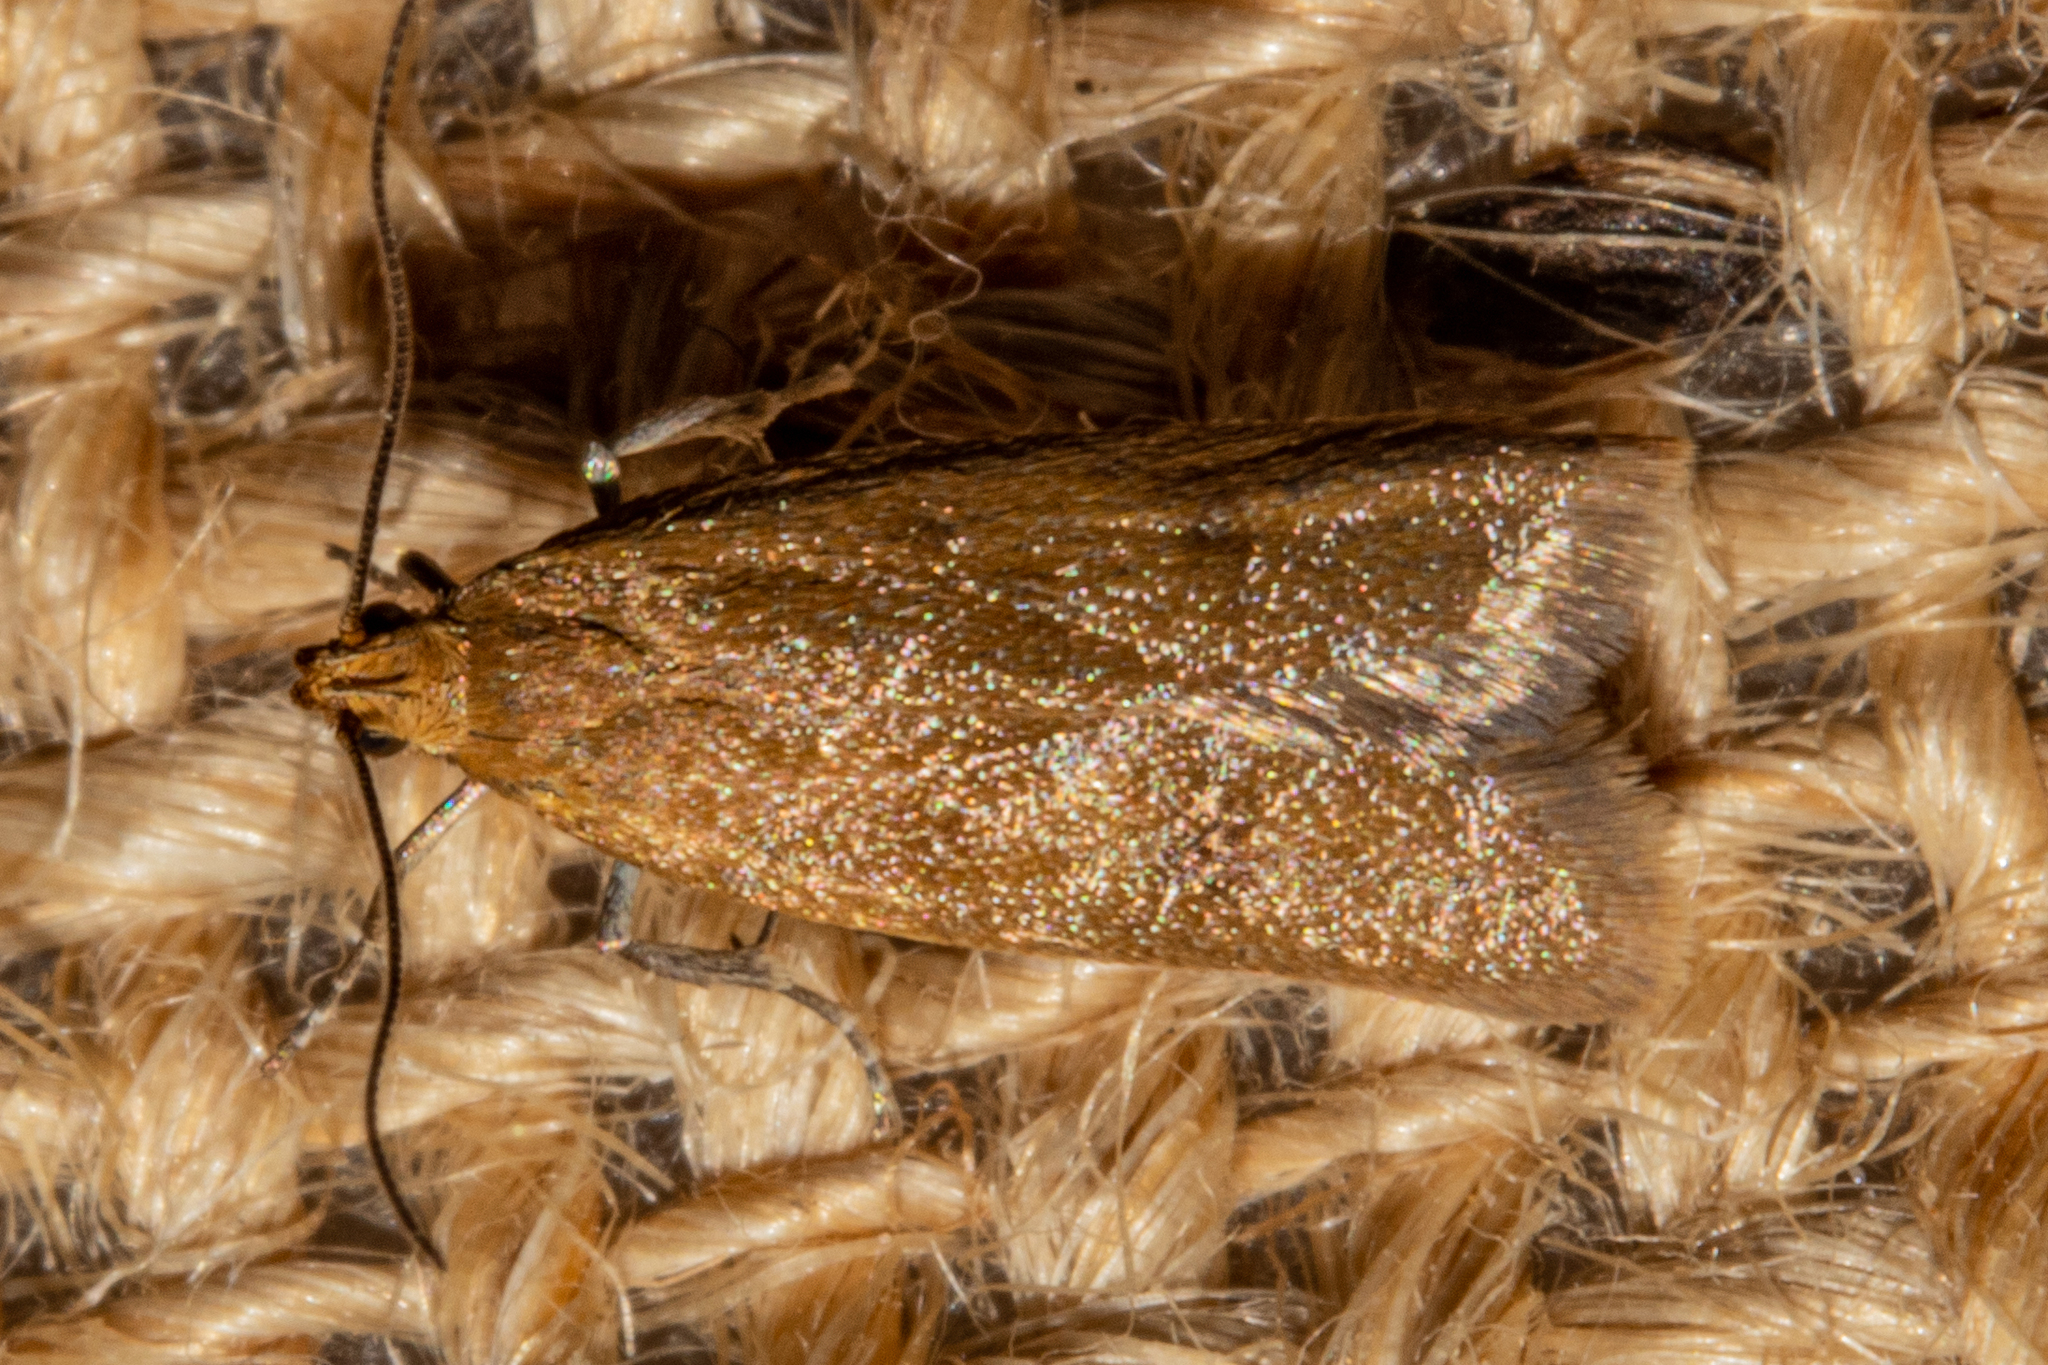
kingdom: Animalia
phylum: Arthropoda
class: Insecta
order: Lepidoptera
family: Oecophoridae
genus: Gymnobathra
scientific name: Gymnobathra parca
